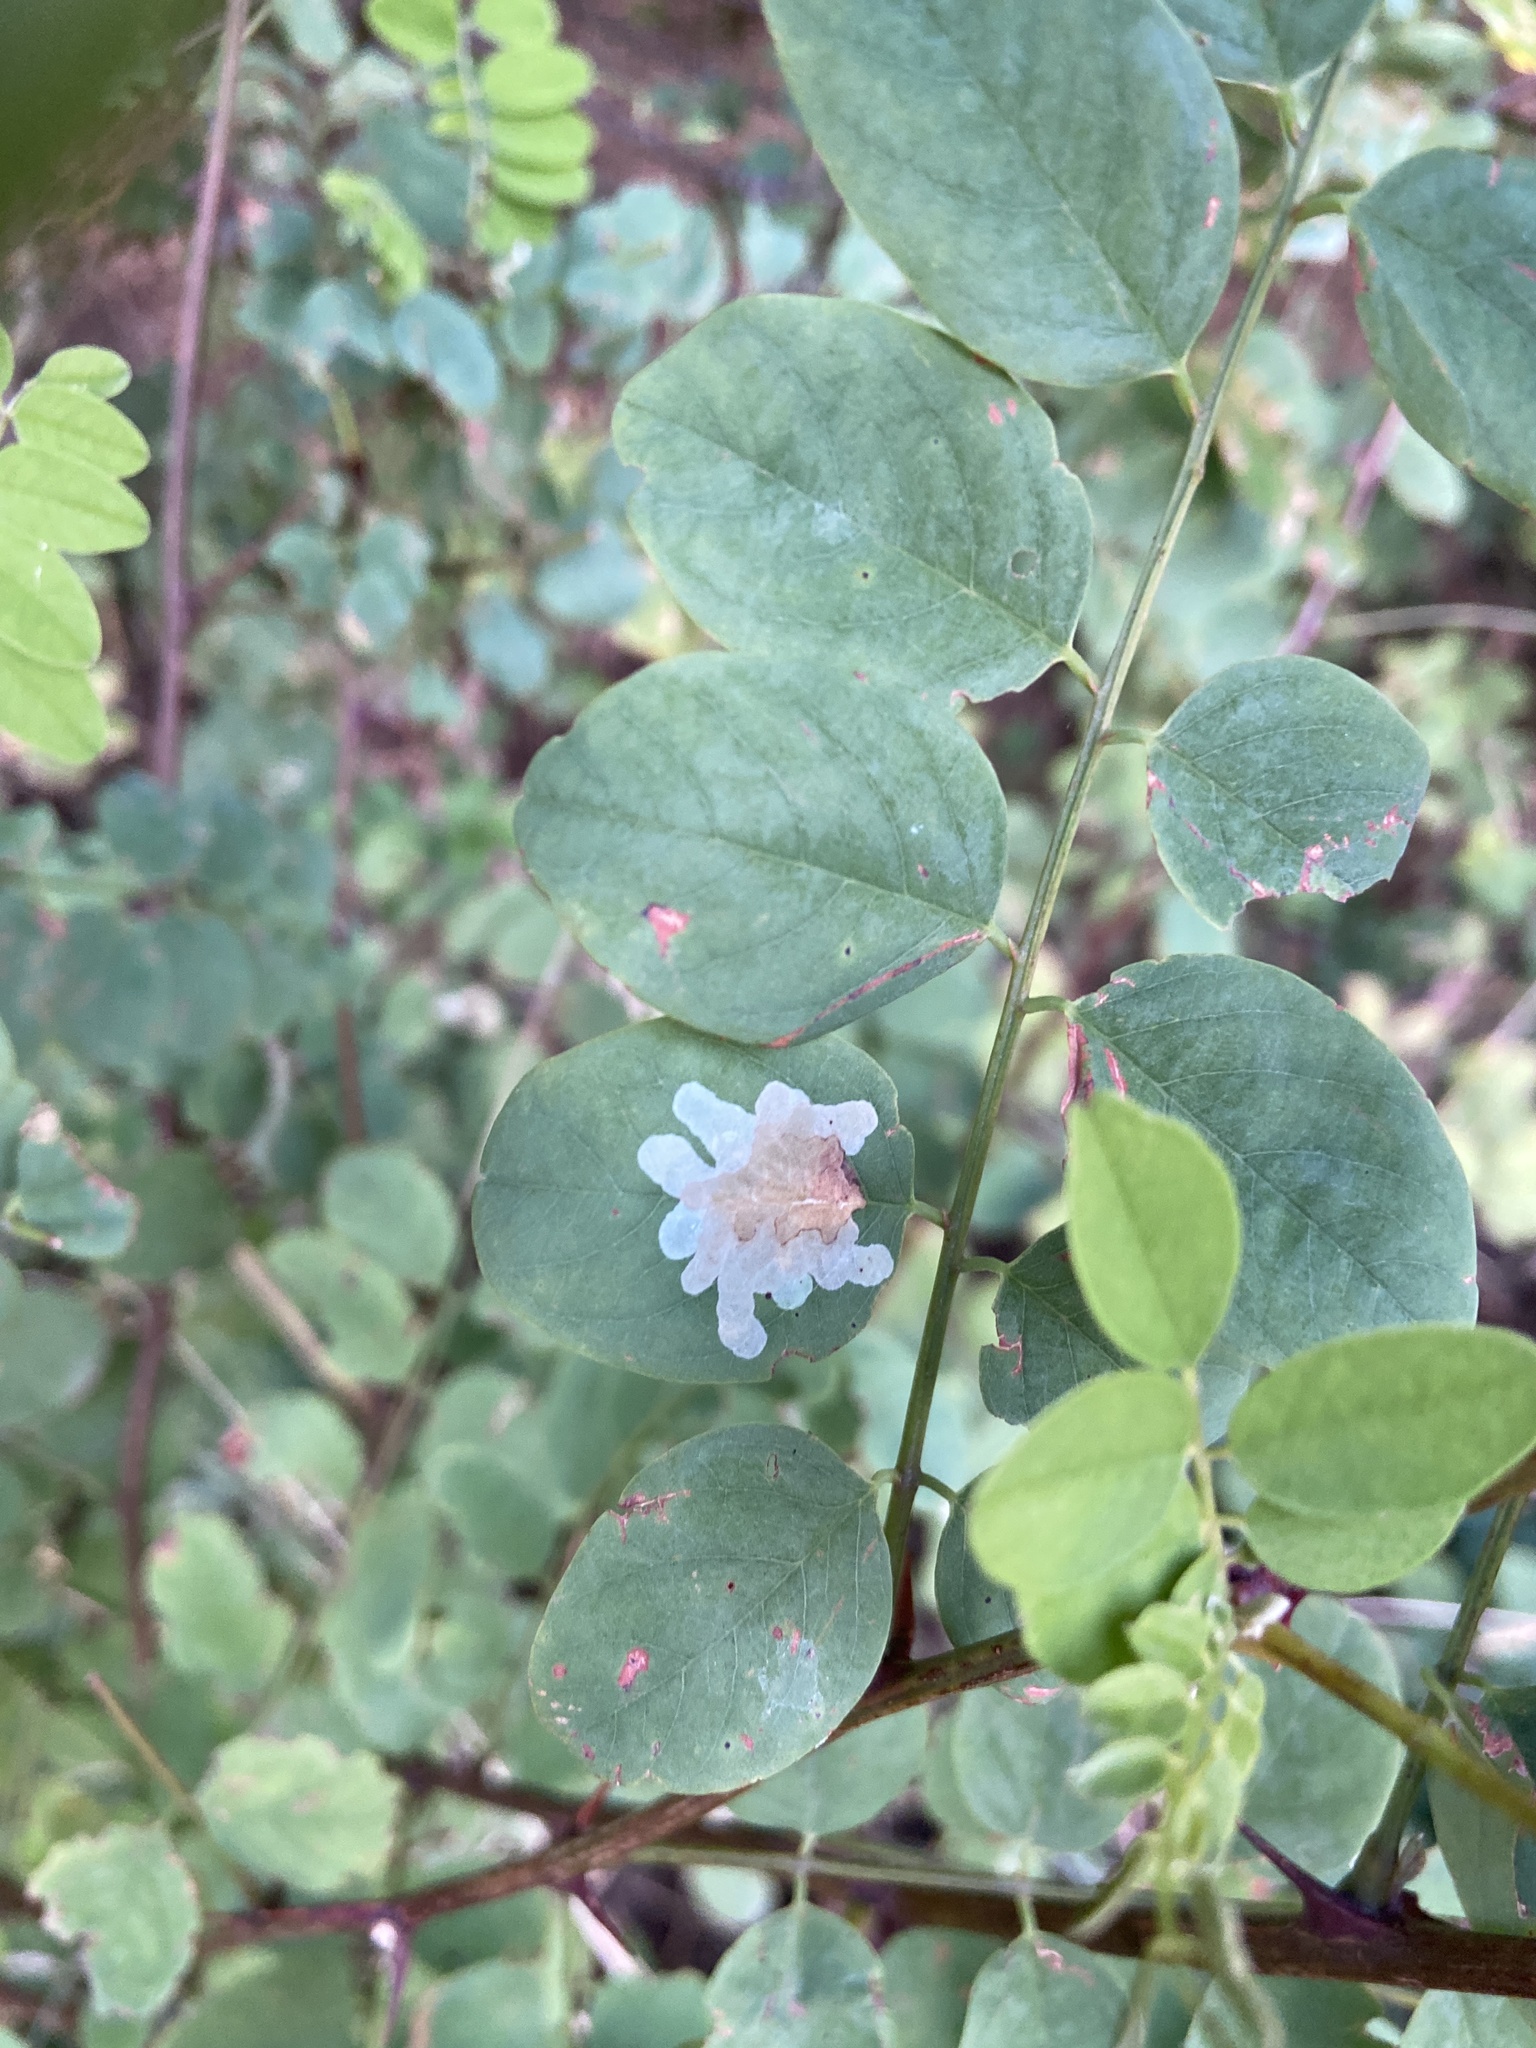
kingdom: Animalia
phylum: Arthropoda
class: Insecta
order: Lepidoptera
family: Gracillariidae
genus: Parectopa
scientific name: Parectopa robiniella
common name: Locust digitate leafminer
